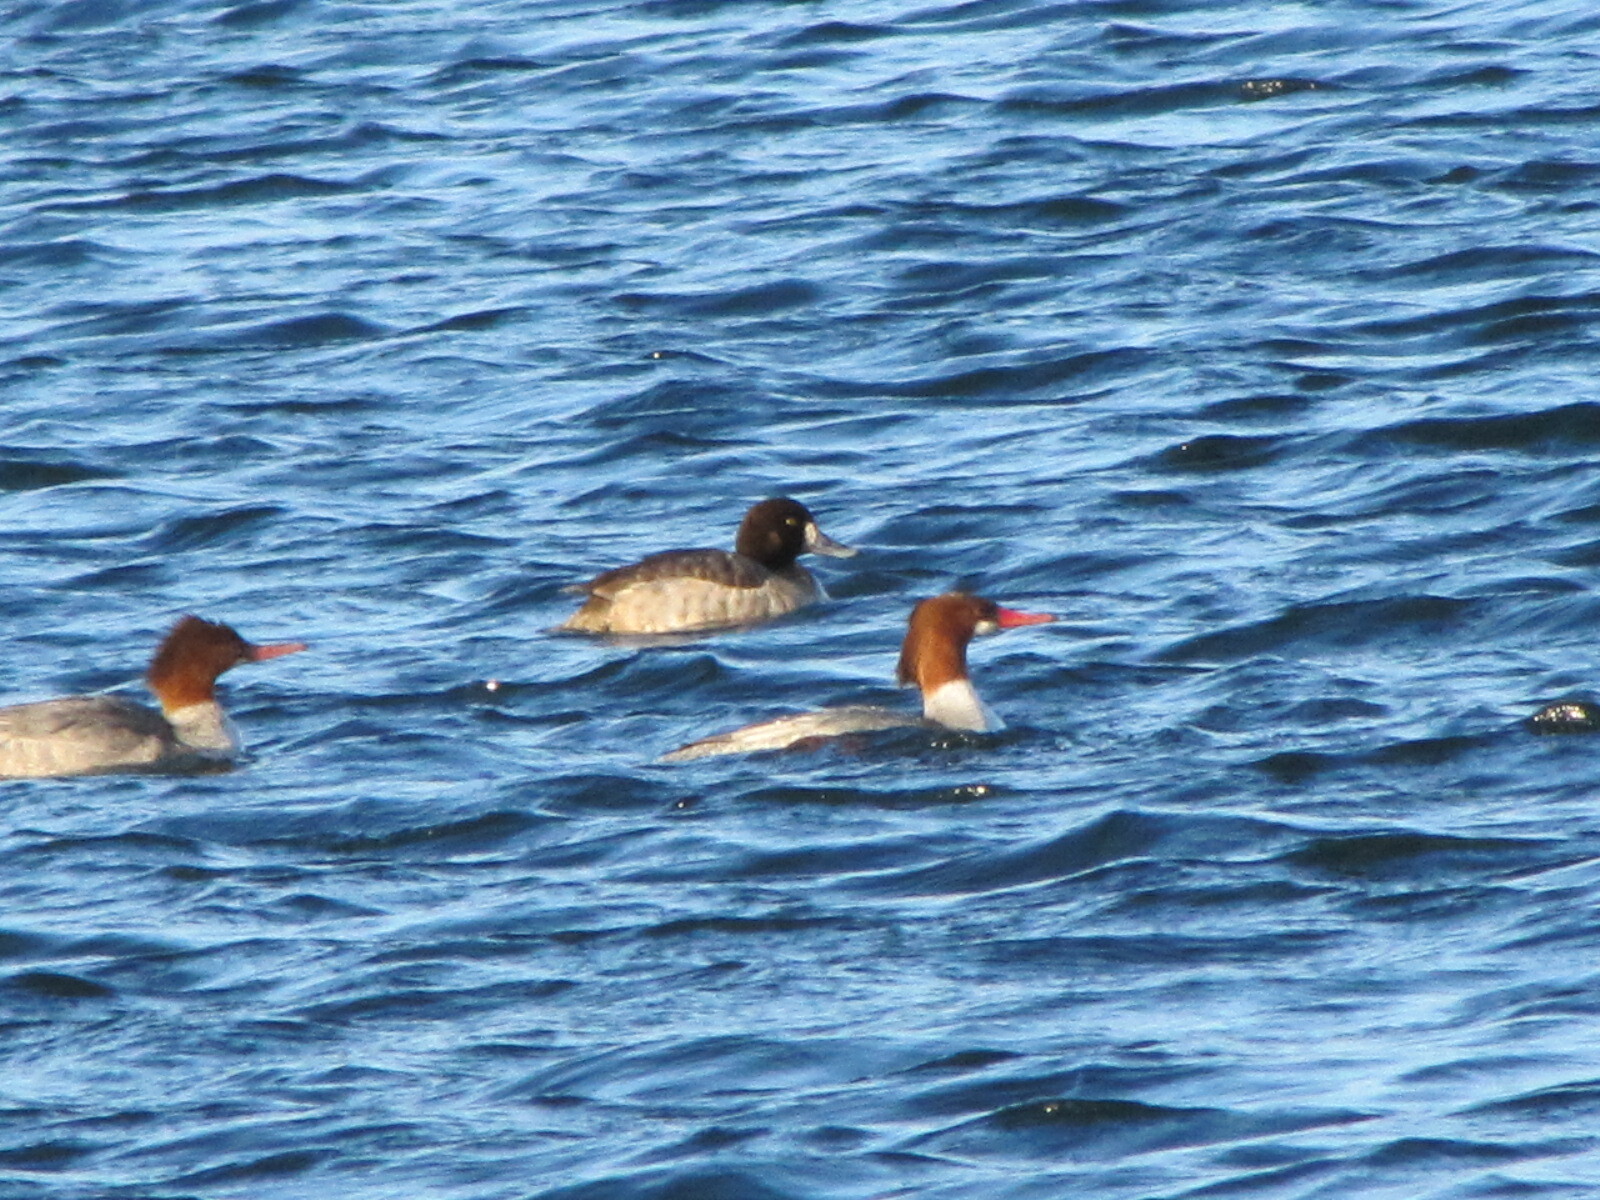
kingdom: Animalia
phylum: Chordata
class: Aves
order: Anseriformes
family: Anatidae
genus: Aythya
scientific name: Aythya marila
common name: Greater scaup
